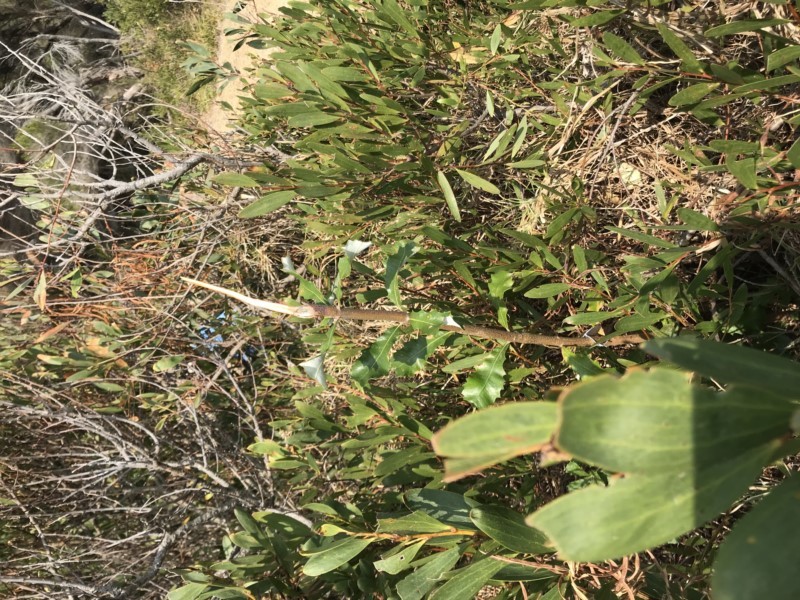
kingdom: Plantae
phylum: Tracheophyta
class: Magnoliopsida
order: Proteales
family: Proteaceae
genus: Banksia
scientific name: Banksia integrifolia
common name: White-honeysuckle
